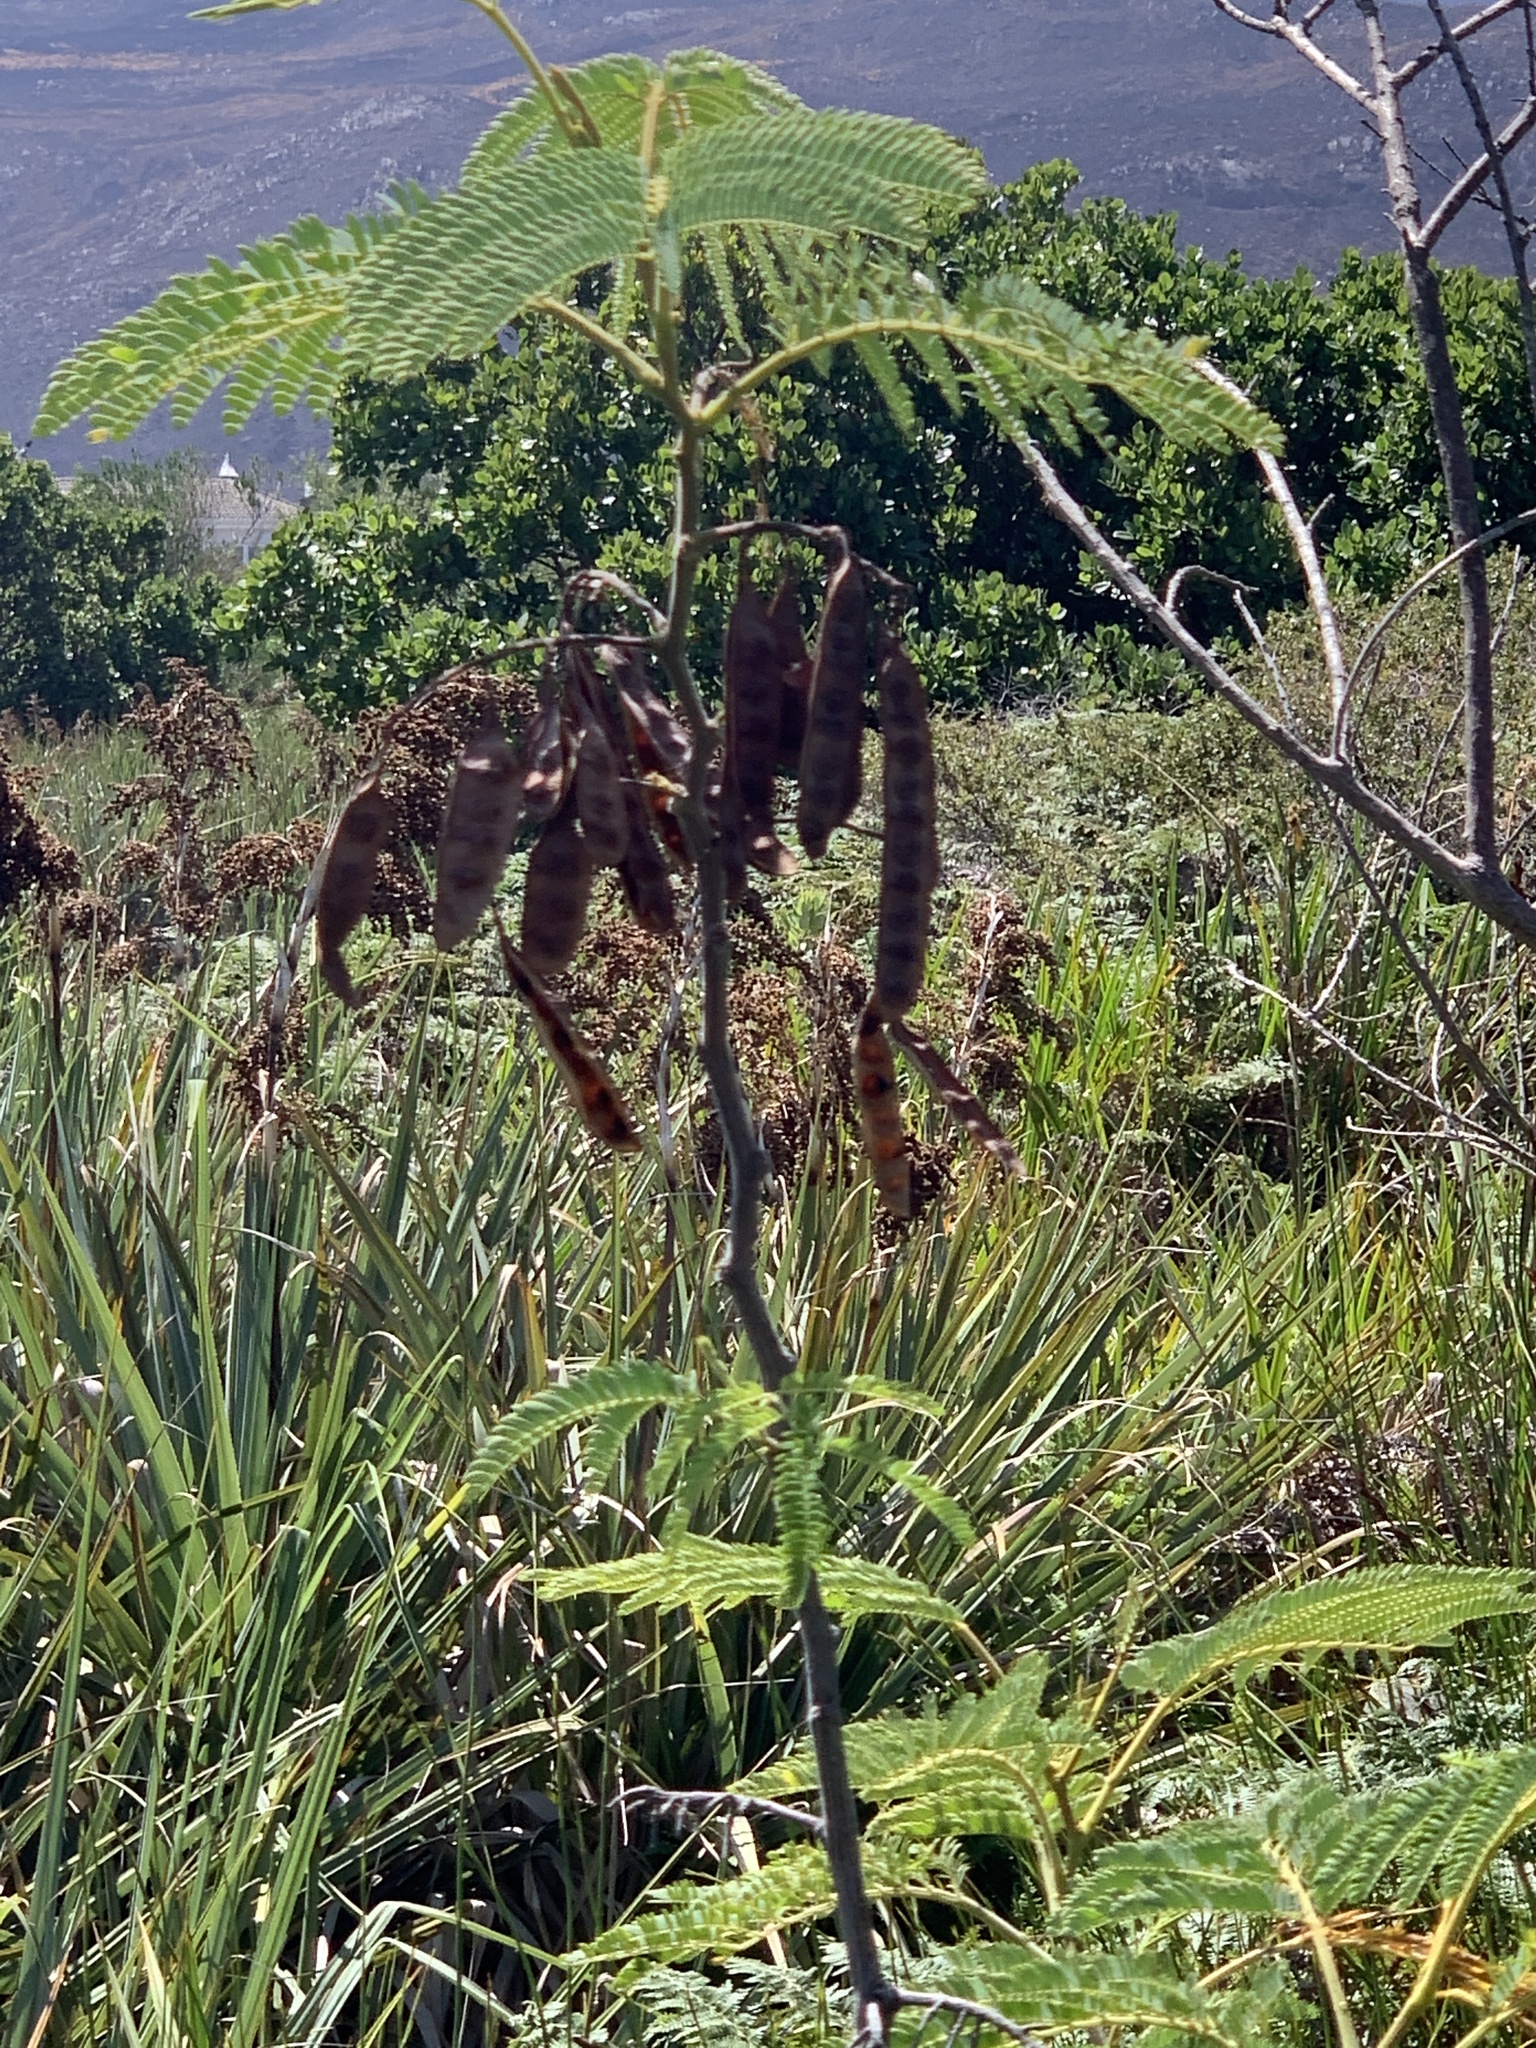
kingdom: Plantae
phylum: Tracheophyta
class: Magnoliopsida
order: Fabales
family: Fabaceae
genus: Paraserianthes
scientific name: Paraserianthes lophantha
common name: Plume albizia
